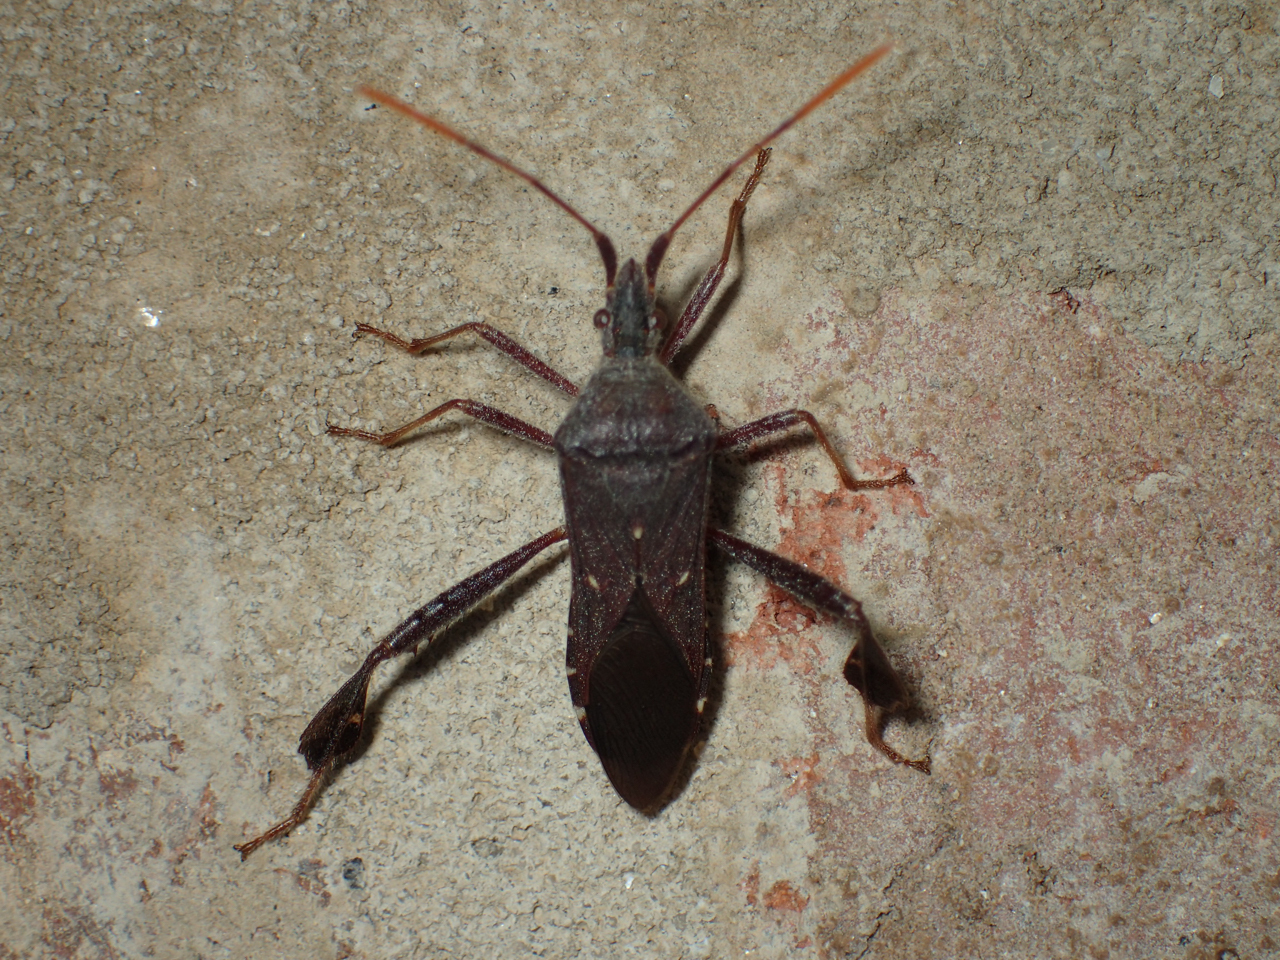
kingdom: Animalia
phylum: Arthropoda
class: Insecta
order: Hemiptera
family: Coreidae
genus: Leptoglossus
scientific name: Leptoglossus oppositus
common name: Northern leaf-footed bug
